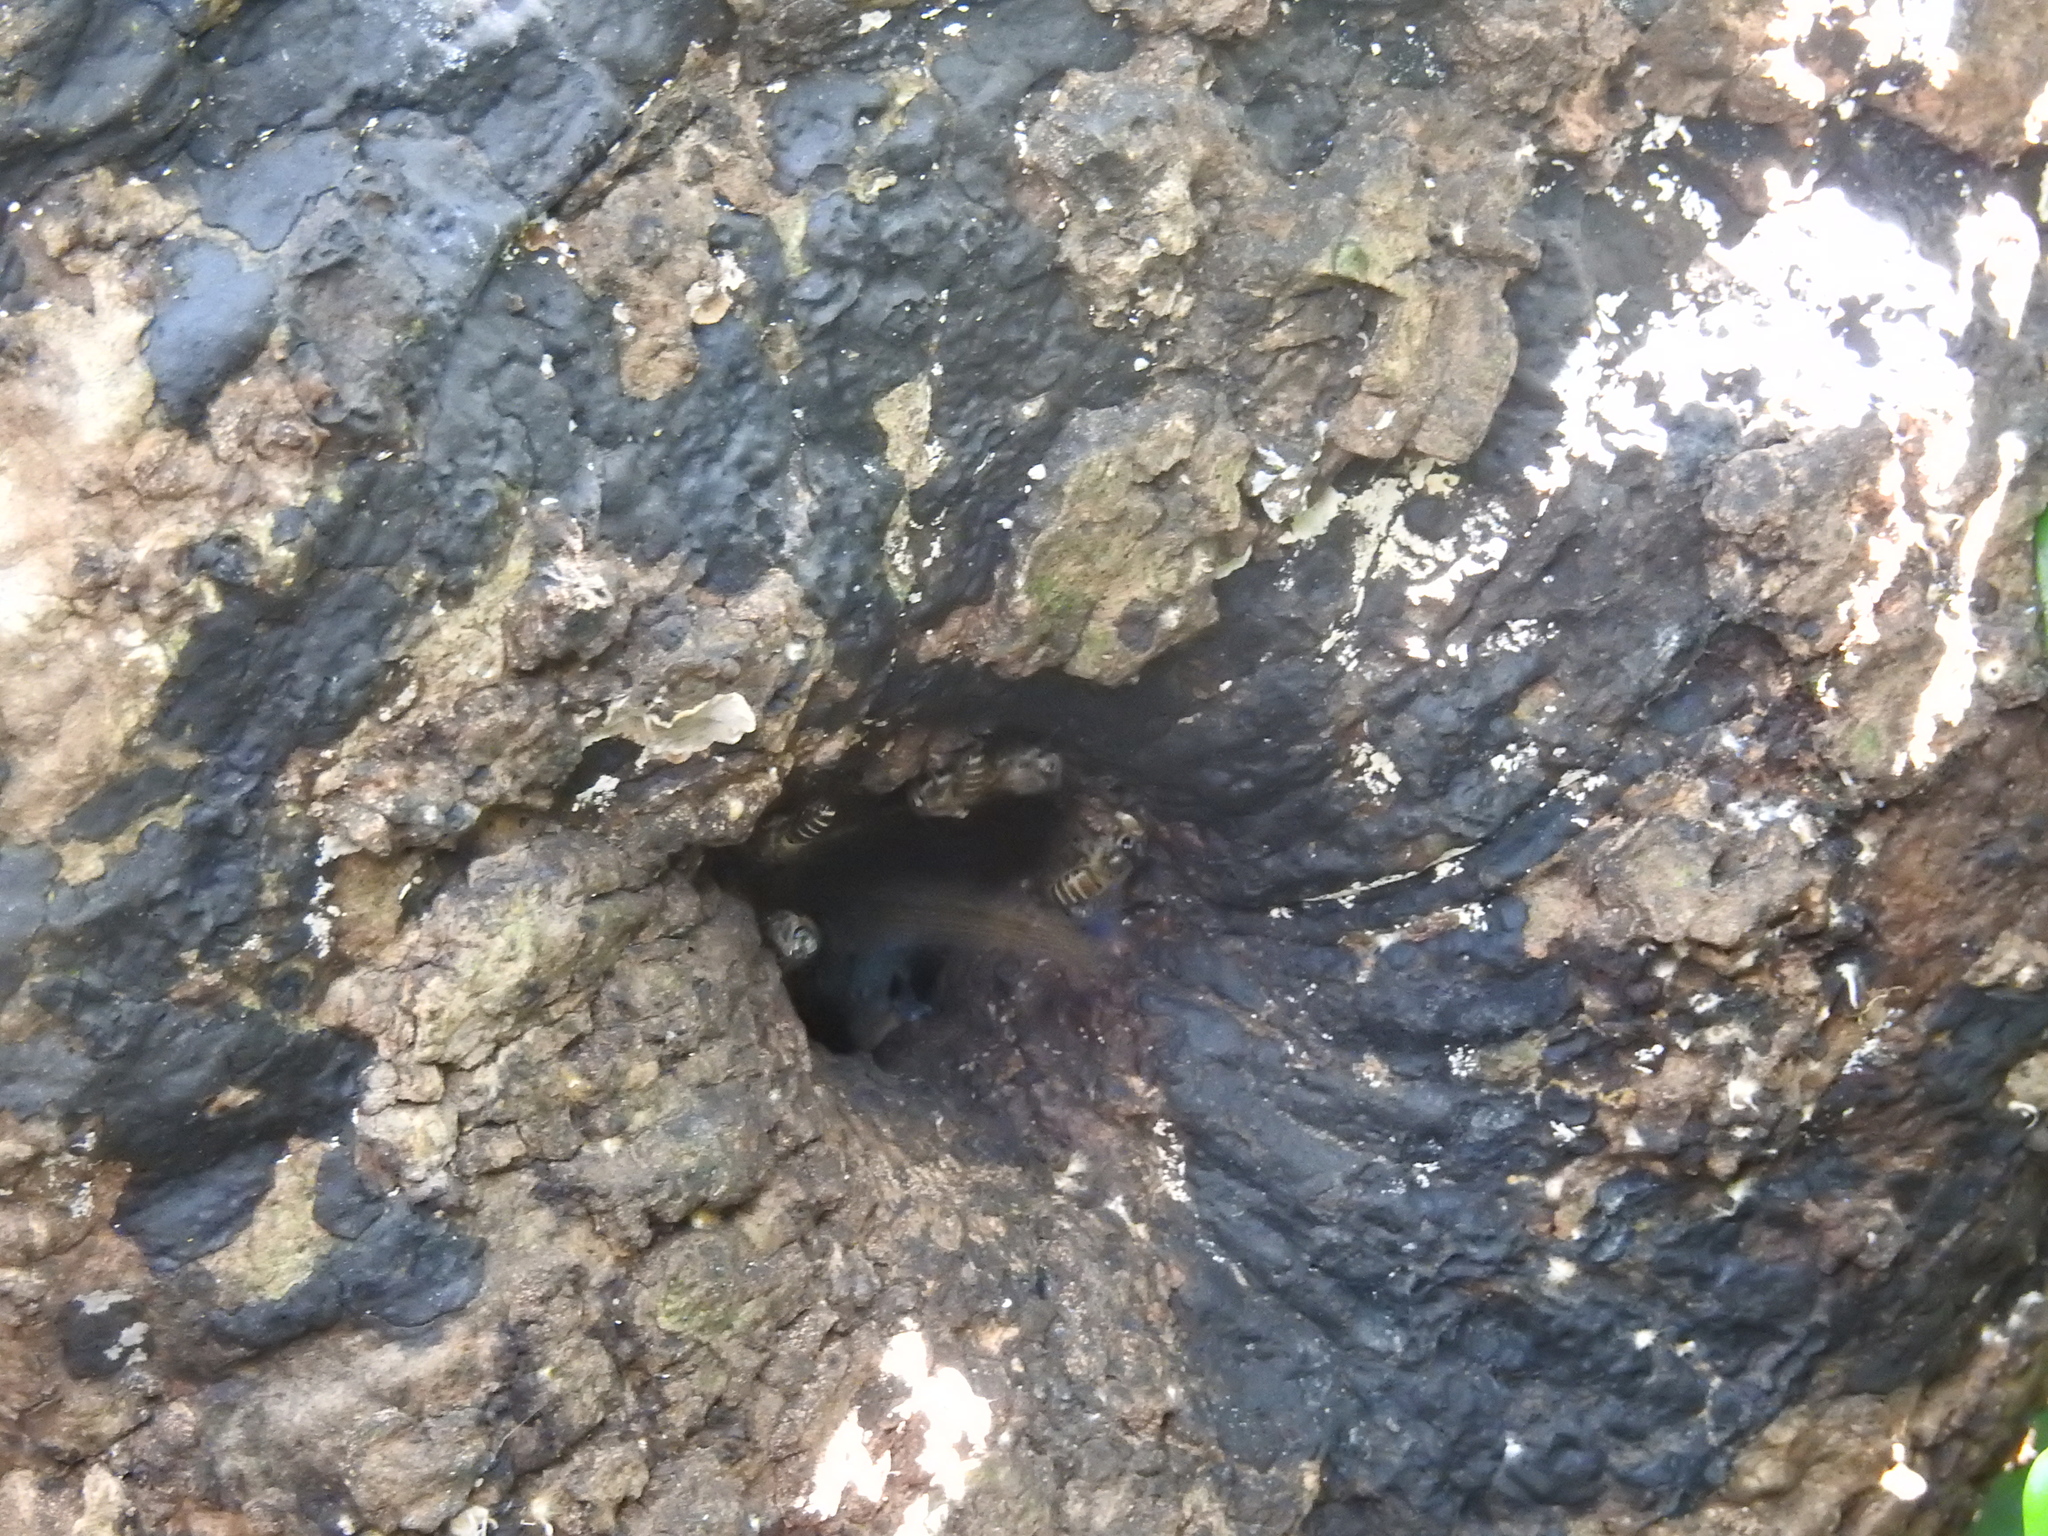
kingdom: Animalia
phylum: Arthropoda
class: Insecta
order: Hymenoptera
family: Apidae
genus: Apis
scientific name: Apis cerana
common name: Honey bee
